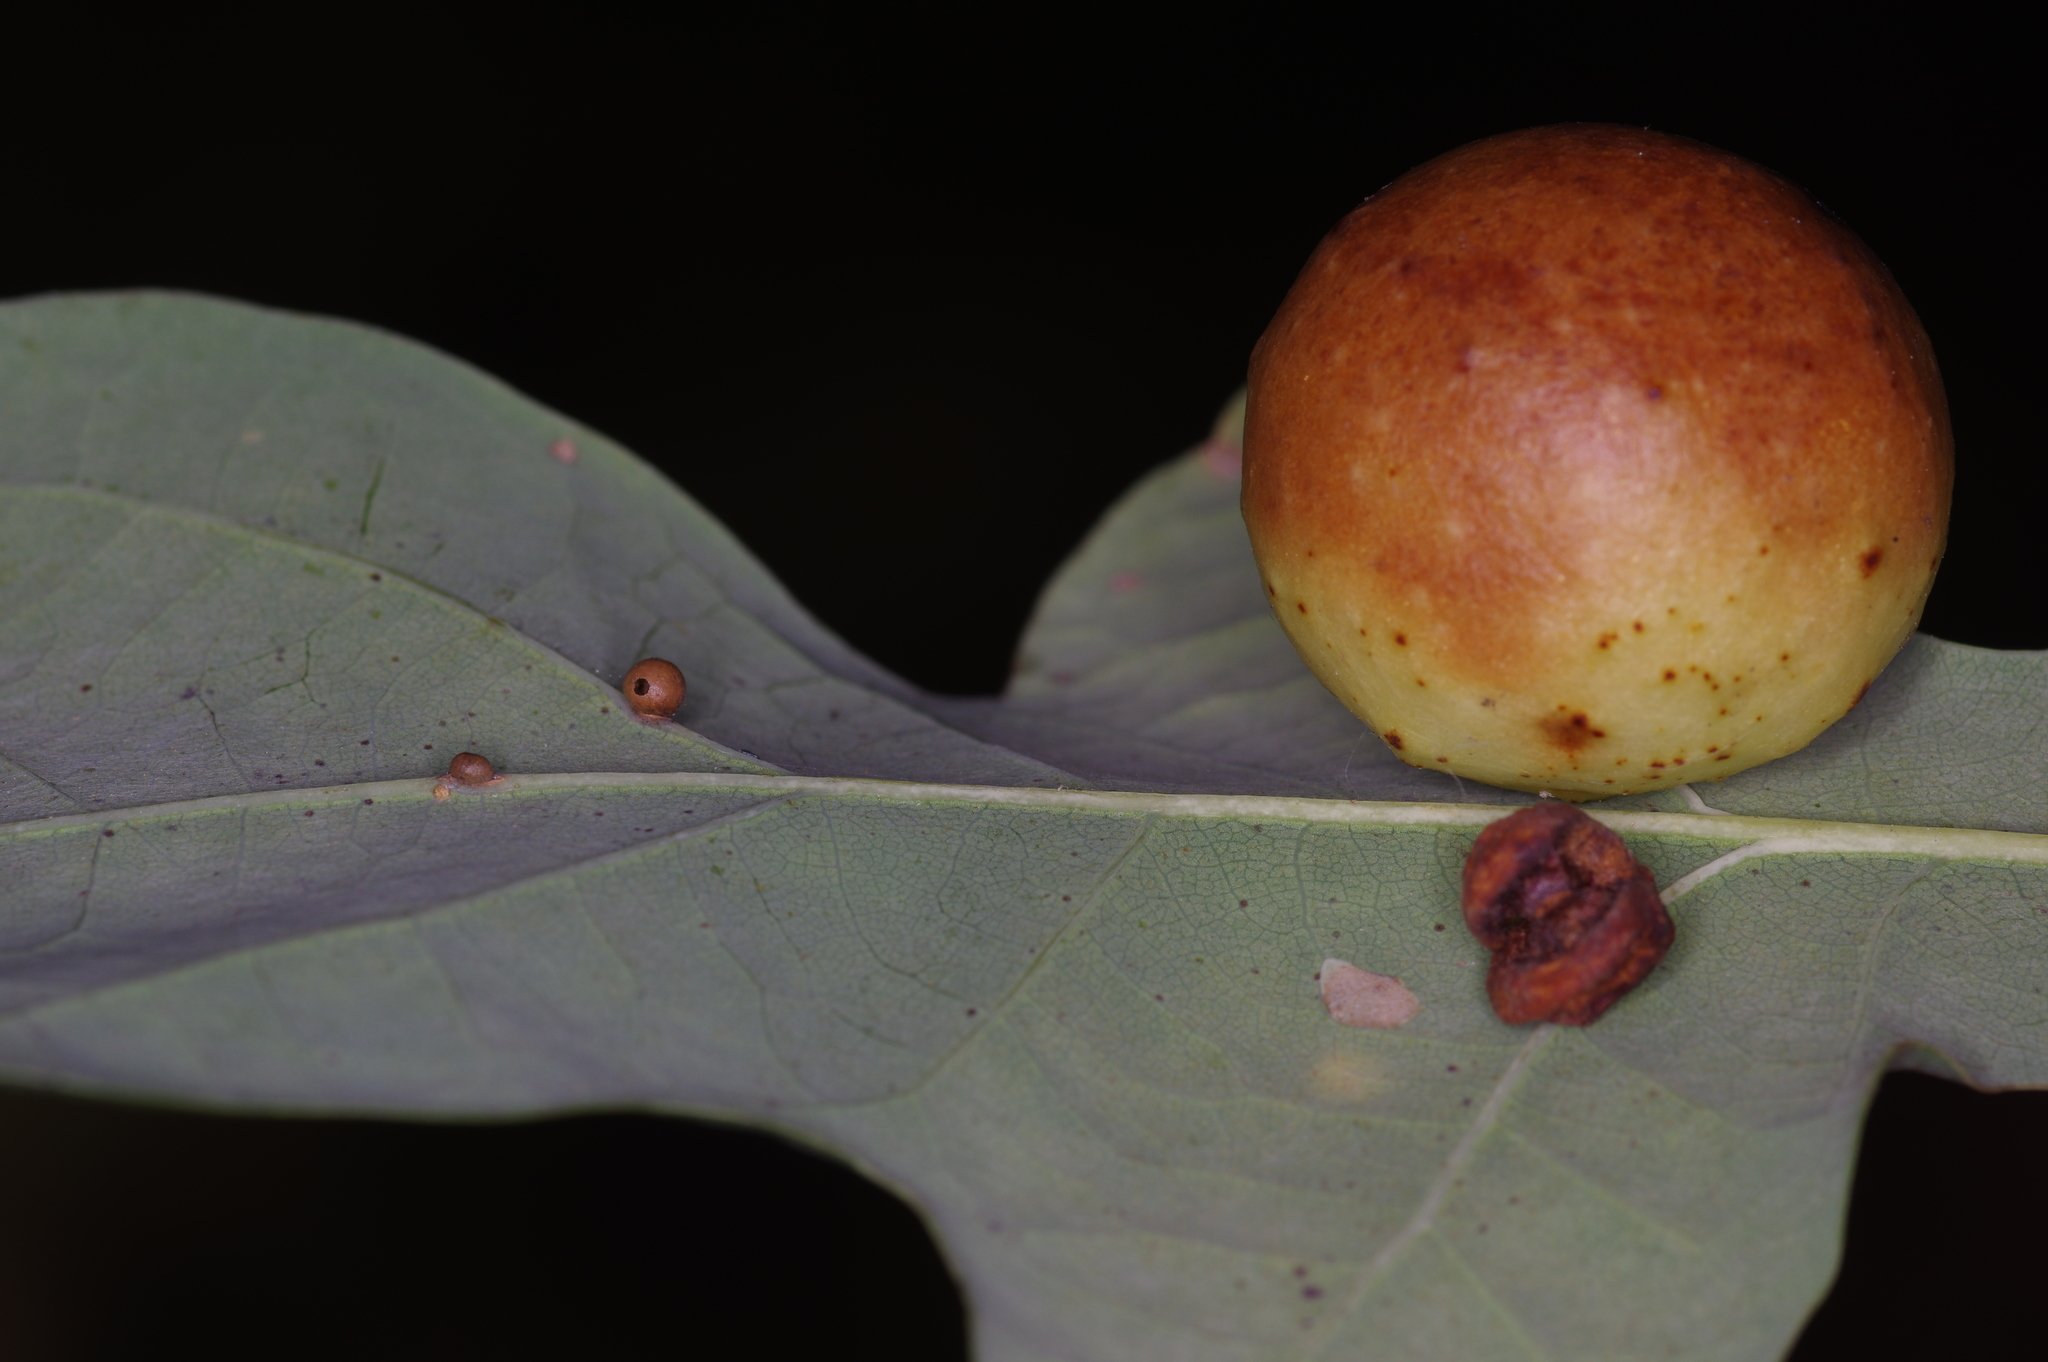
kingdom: Animalia
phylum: Arthropoda
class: Insecta
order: Hymenoptera
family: Cynipidae
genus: Cynips
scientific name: Cynips quercusfolii
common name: Cherry gall
